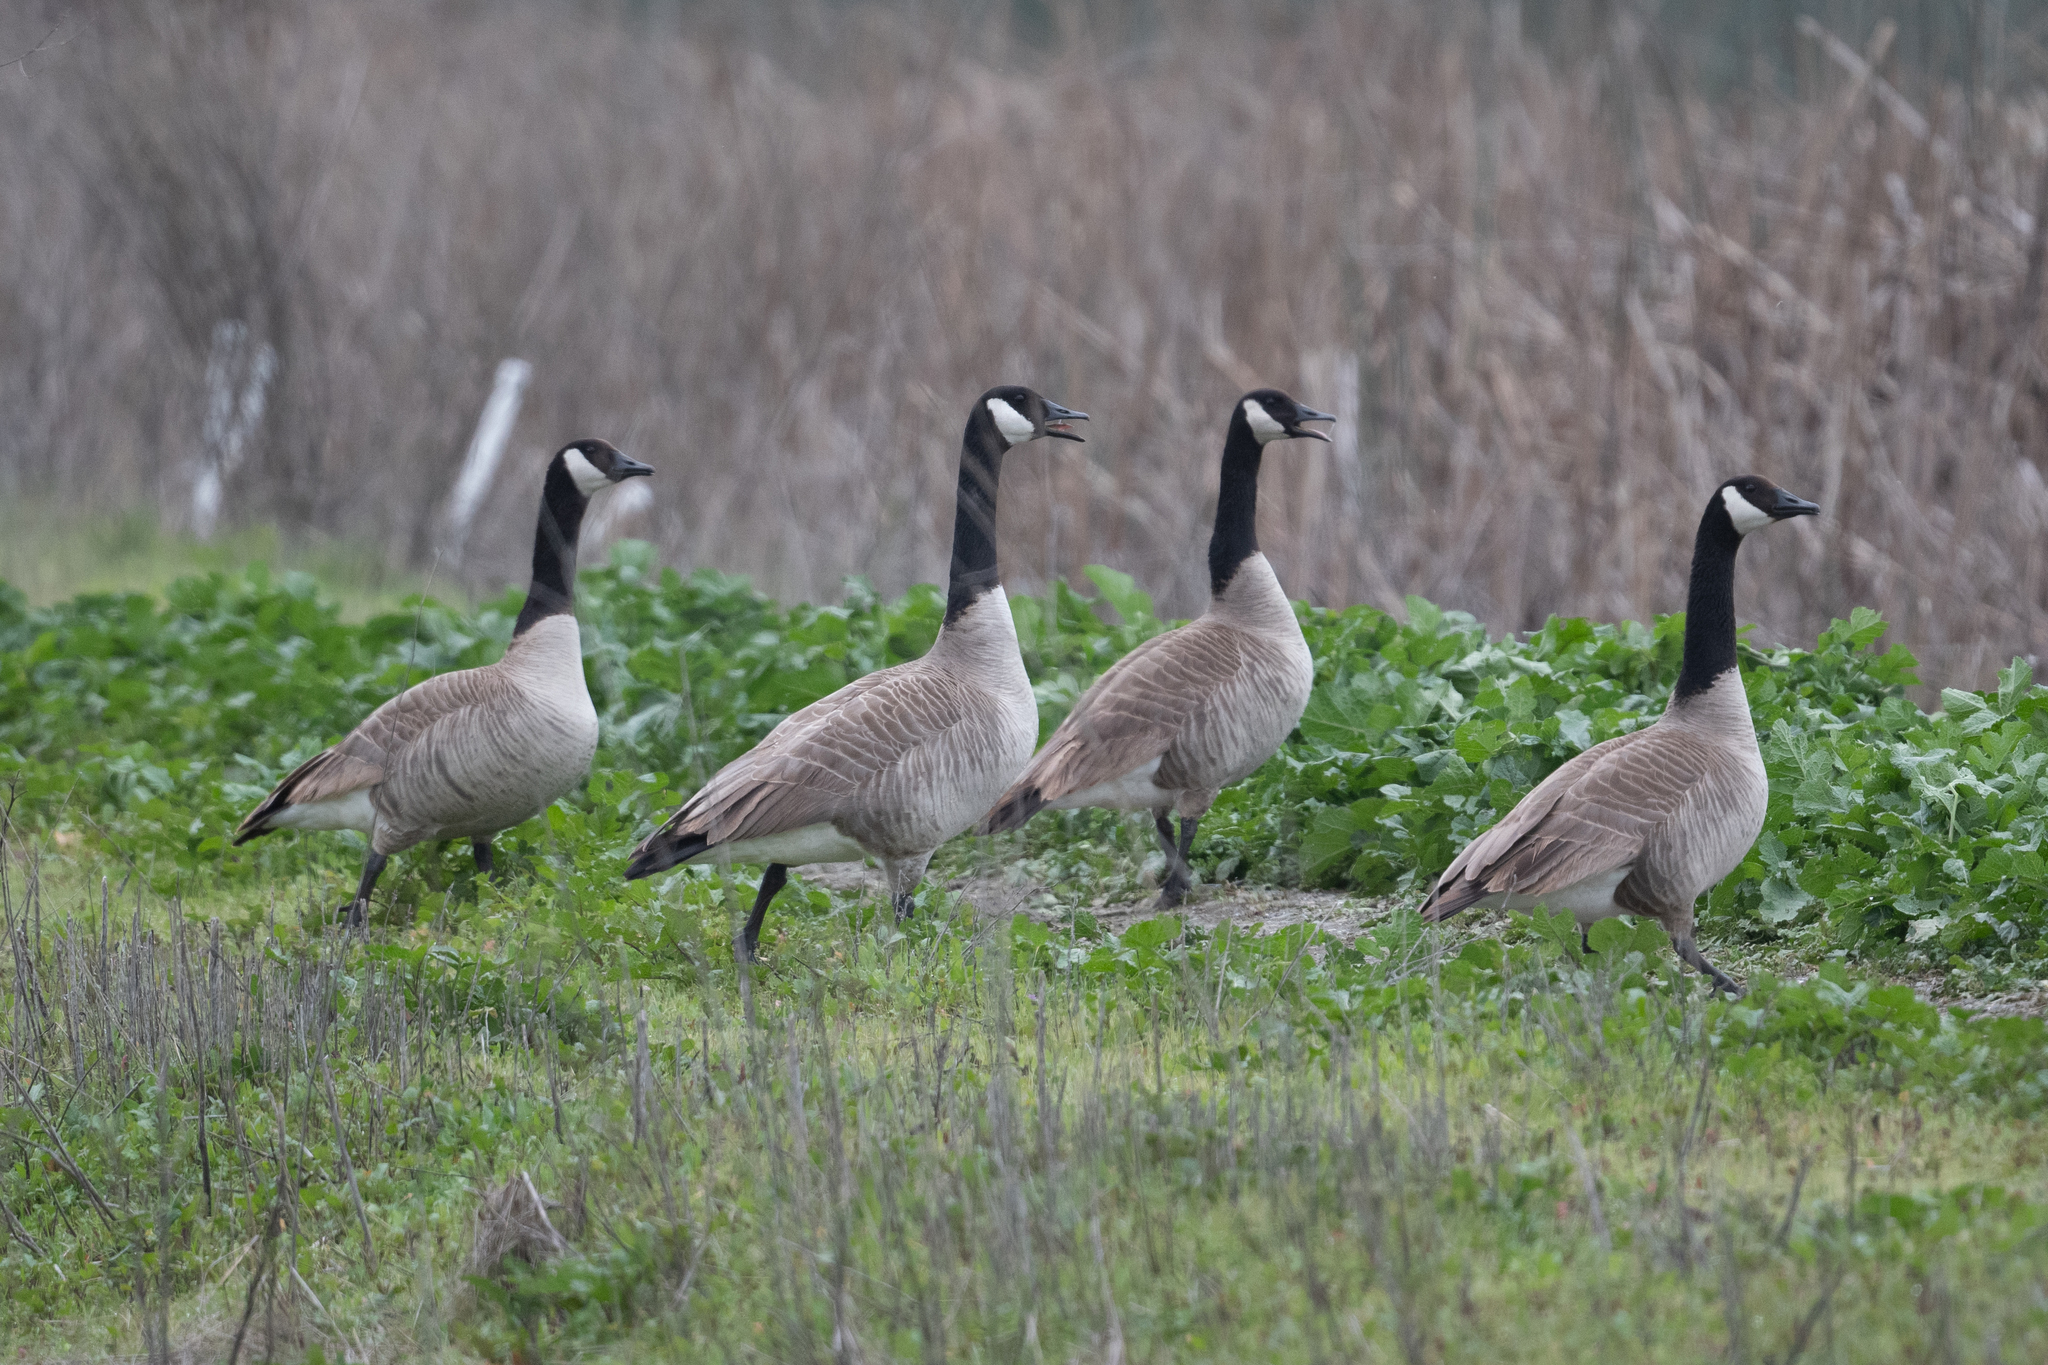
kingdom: Animalia
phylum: Chordata
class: Aves
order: Anseriformes
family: Anatidae
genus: Branta
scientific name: Branta canadensis
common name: Canada goose
